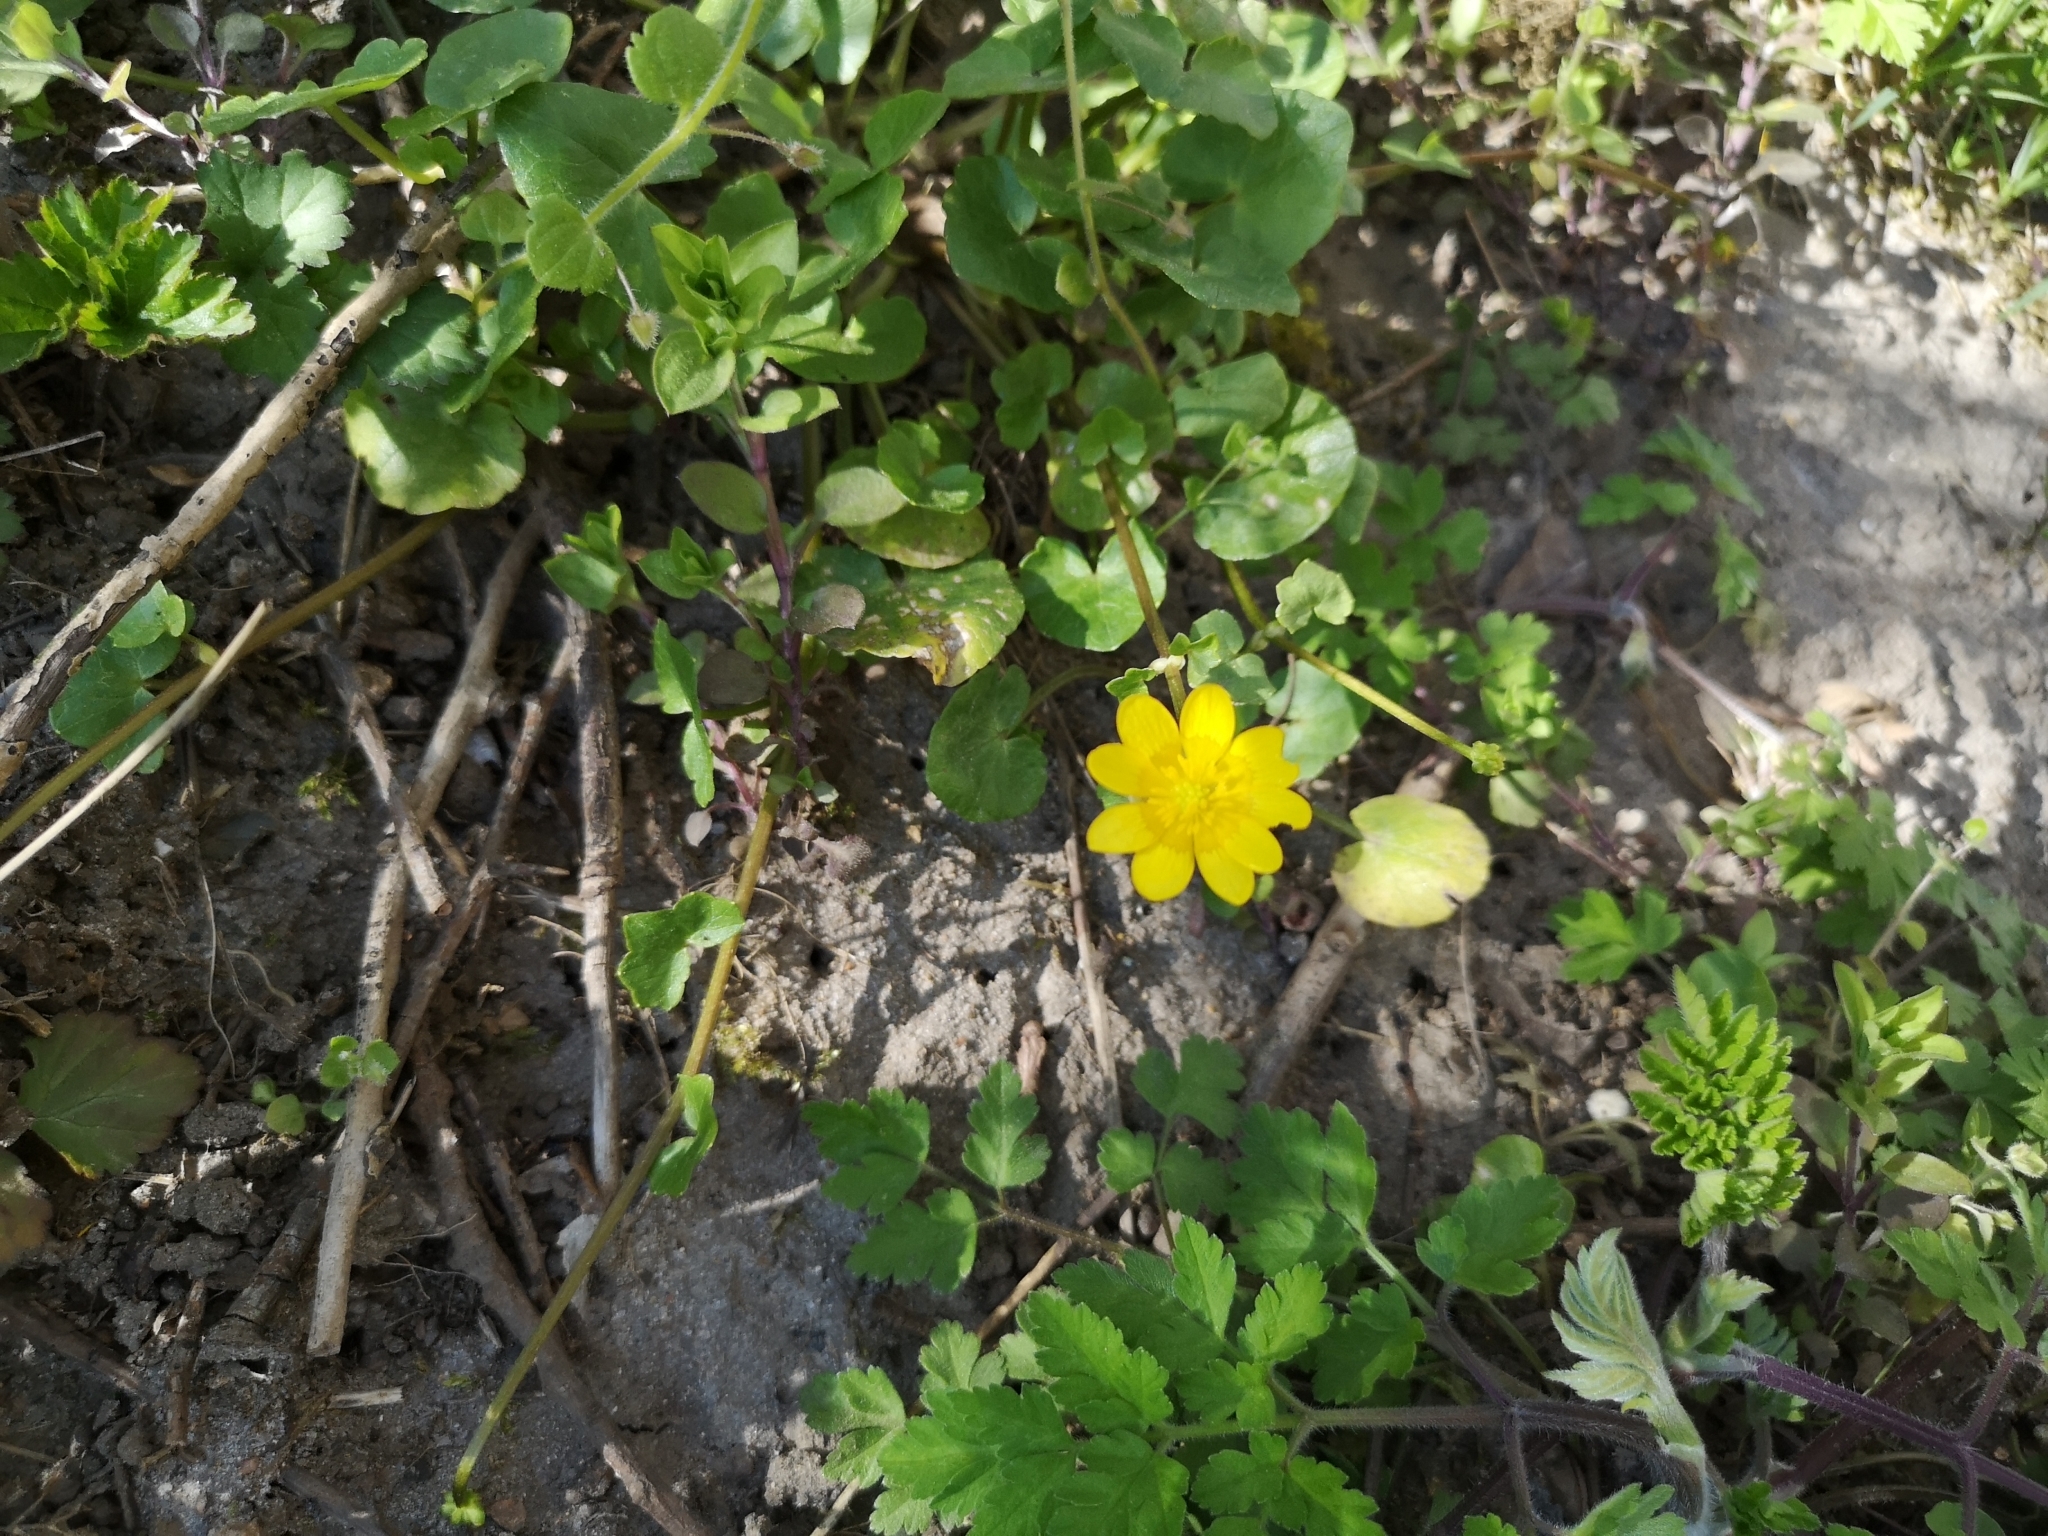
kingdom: Plantae
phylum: Tracheophyta
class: Magnoliopsida
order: Ranunculales
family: Ranunculaceae
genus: Ficaria
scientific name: Ficaria verna
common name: Lesser celandine
